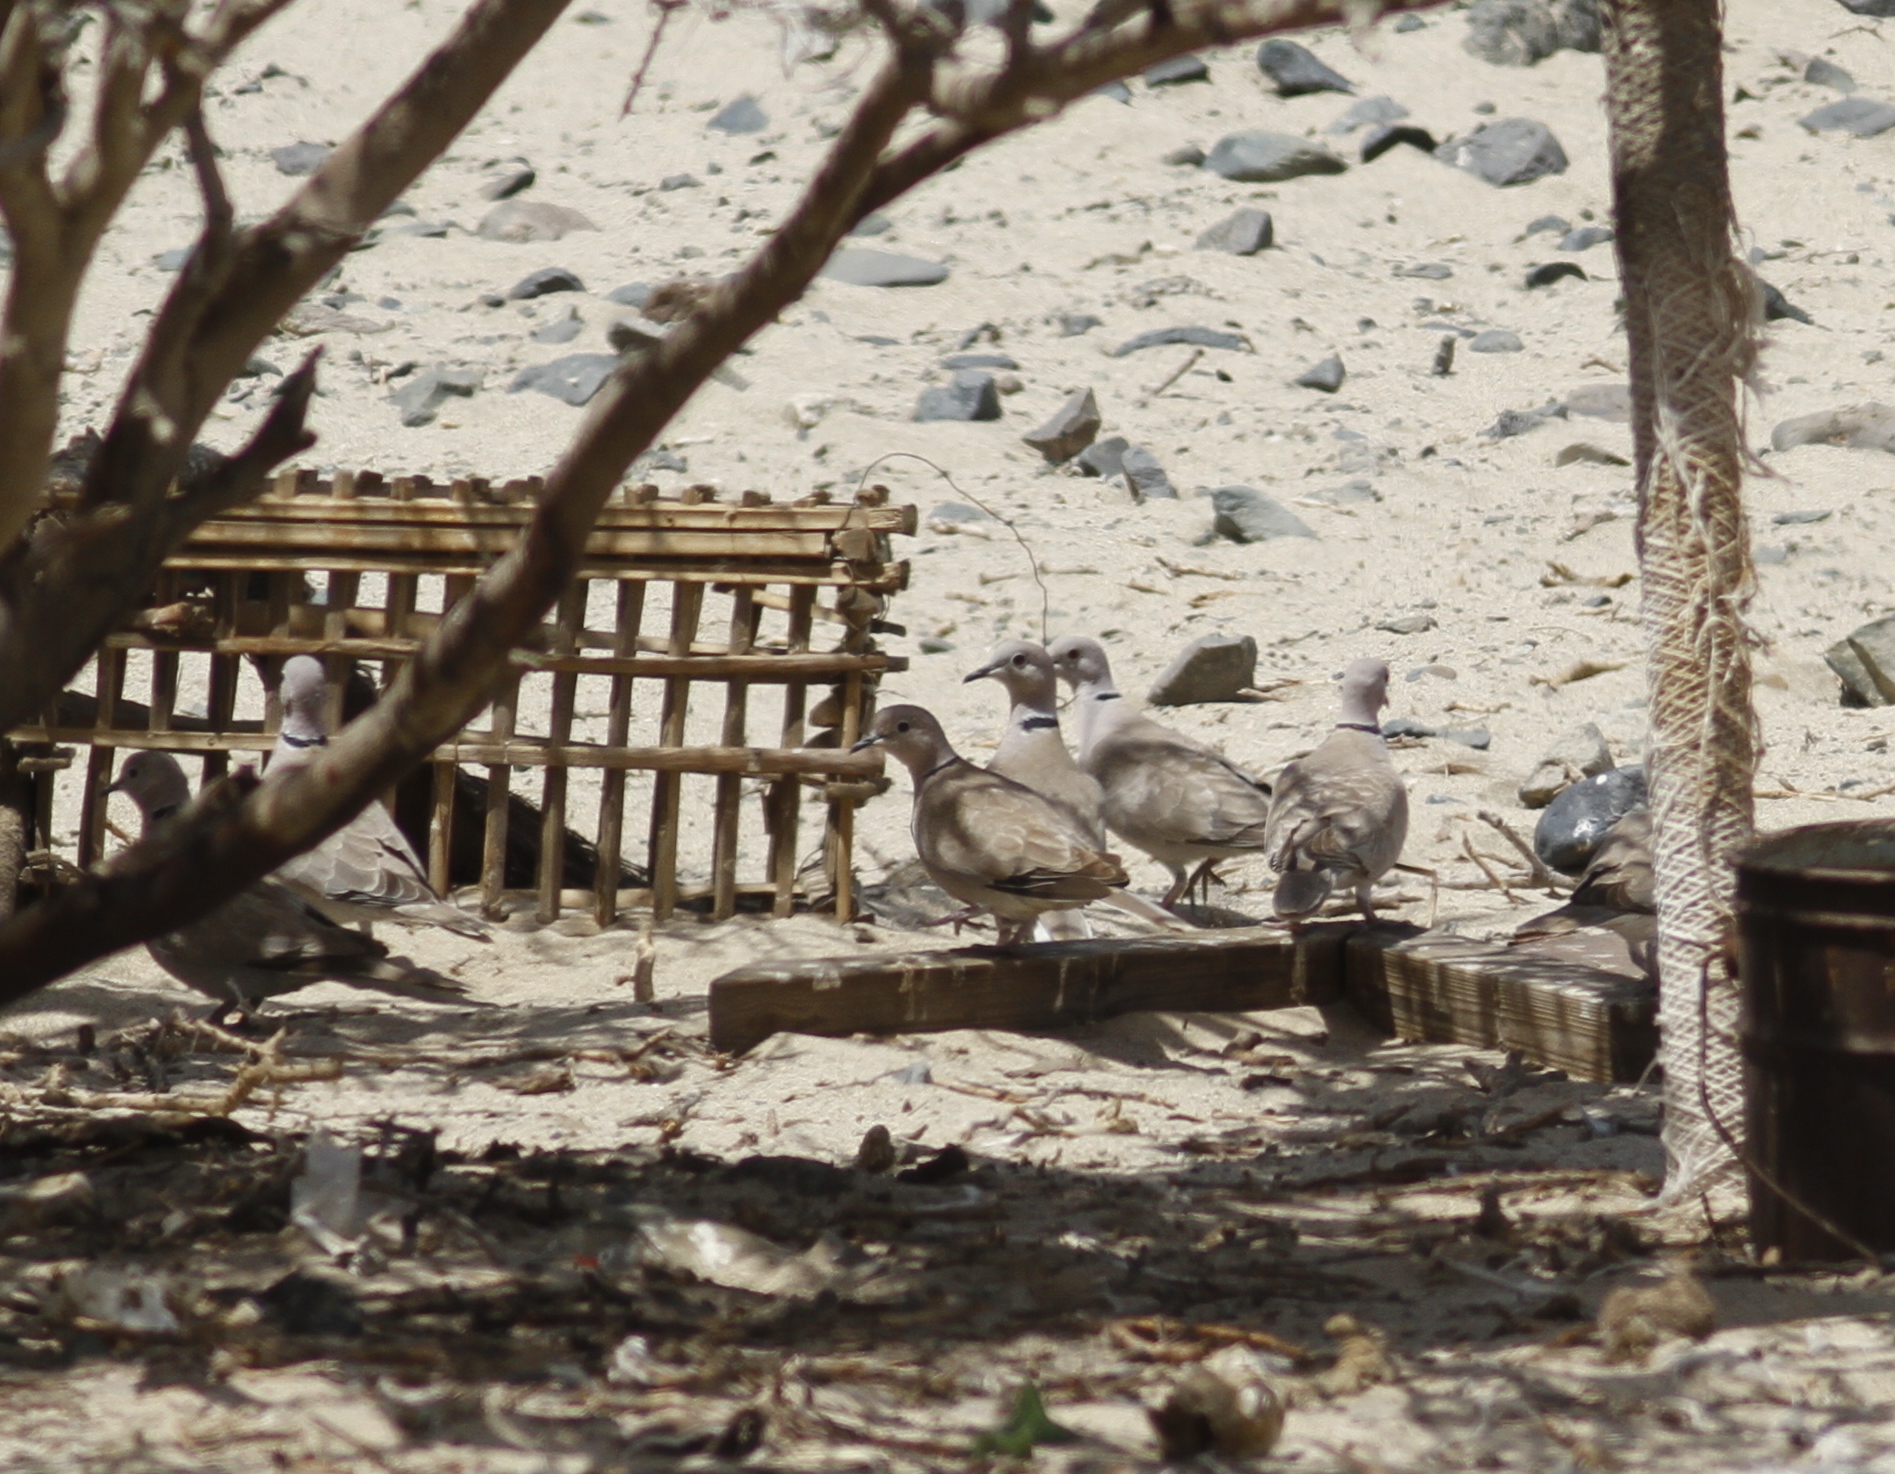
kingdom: Animalia
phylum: Chordata
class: Aves
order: Columbiformes
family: Columbidae
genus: Streptopelia
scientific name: Streptopelia decaocto
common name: Eurasian collared dove
